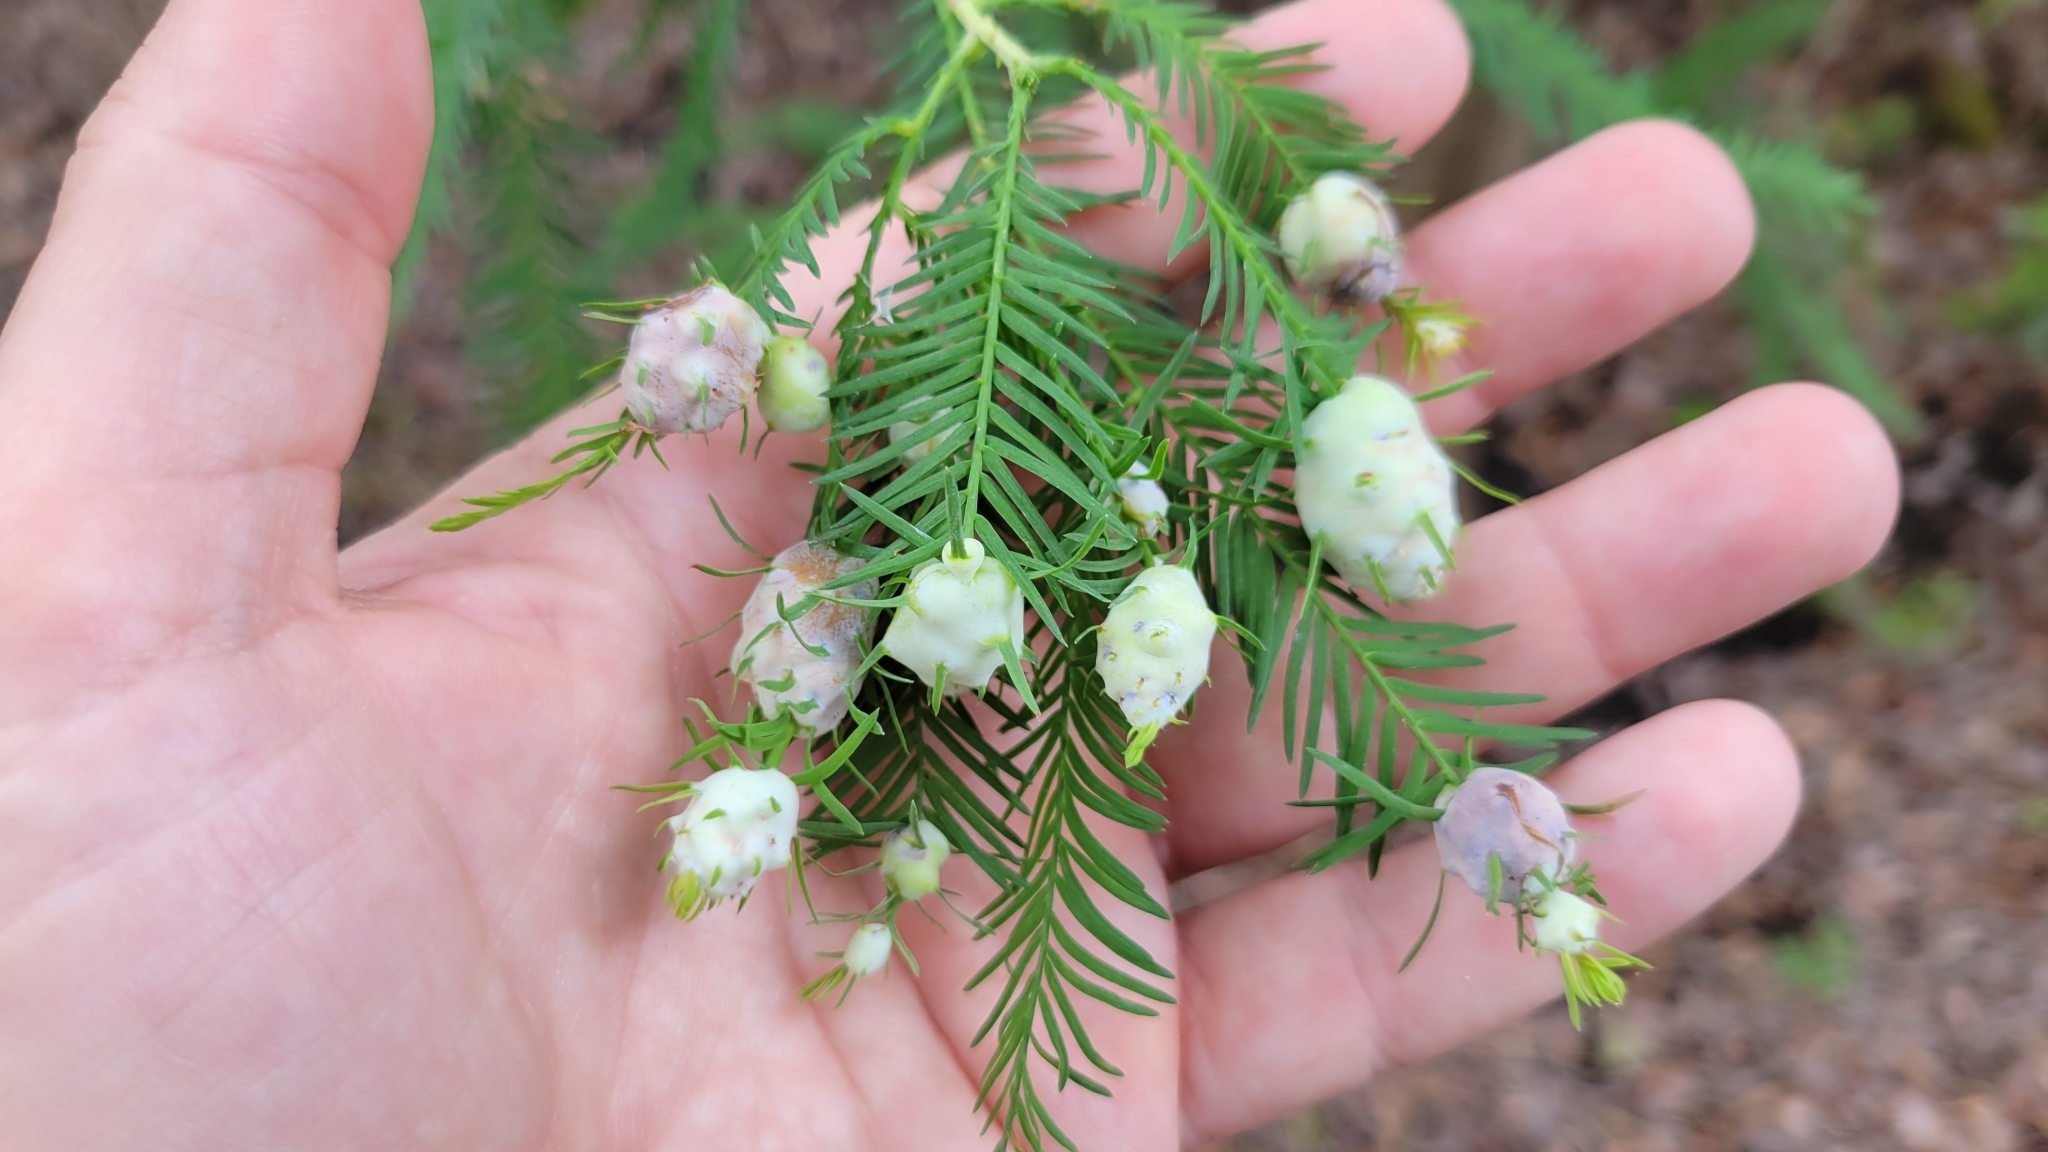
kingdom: Animalia
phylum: Arthropoda
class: Insecta
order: Diptera
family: Cecidomyiidae
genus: Taxodiomyia
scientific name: Taxodiomyia cupressiananassa
